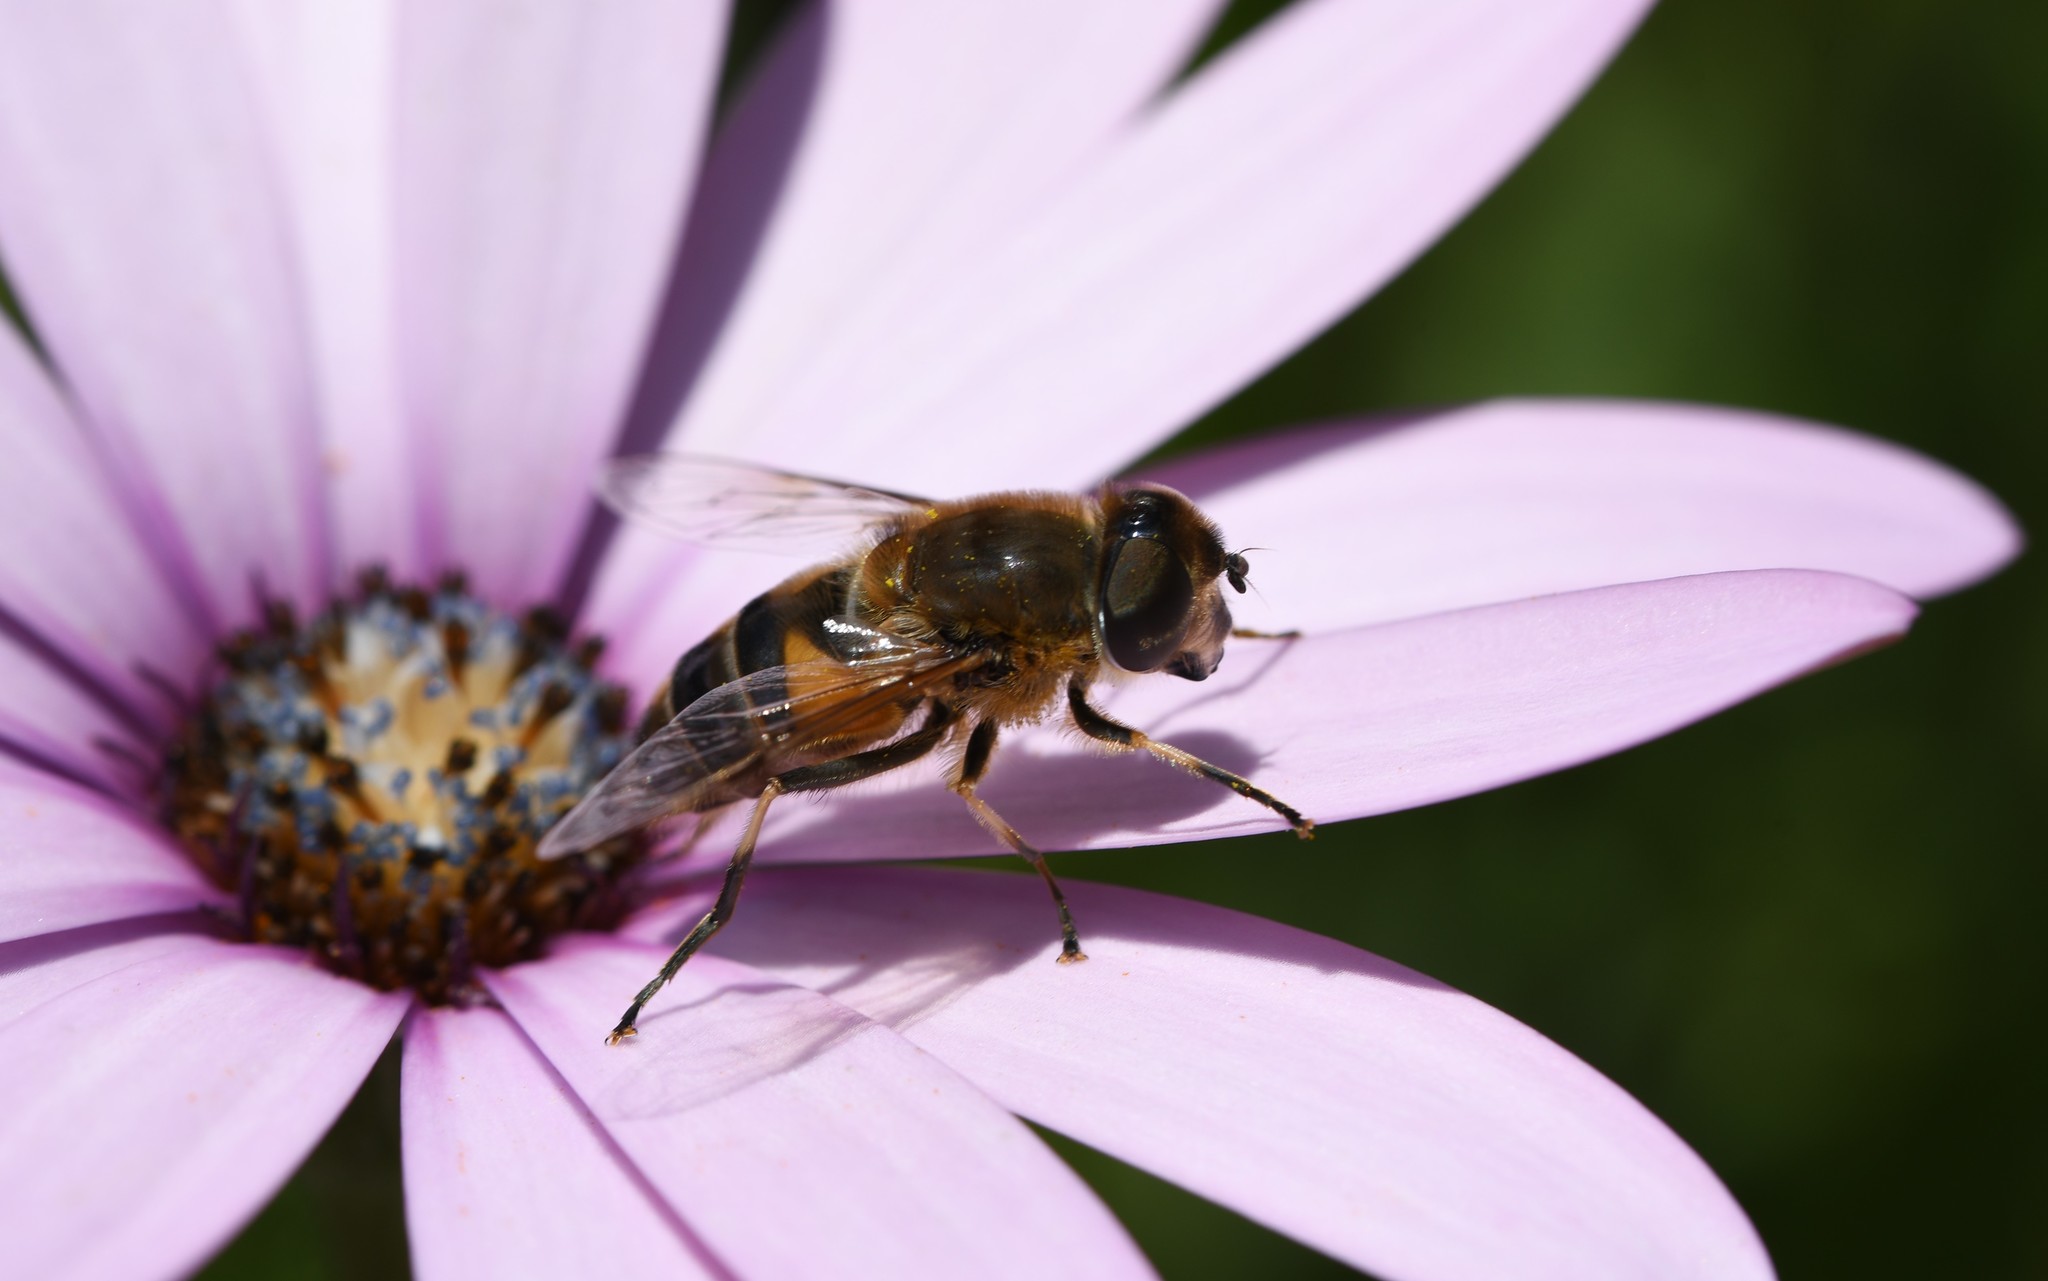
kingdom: Animalia
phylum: Arthropoda
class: Insecta
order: Diptera
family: Syrphidae
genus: Eristalis
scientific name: Eristalis pertinax
